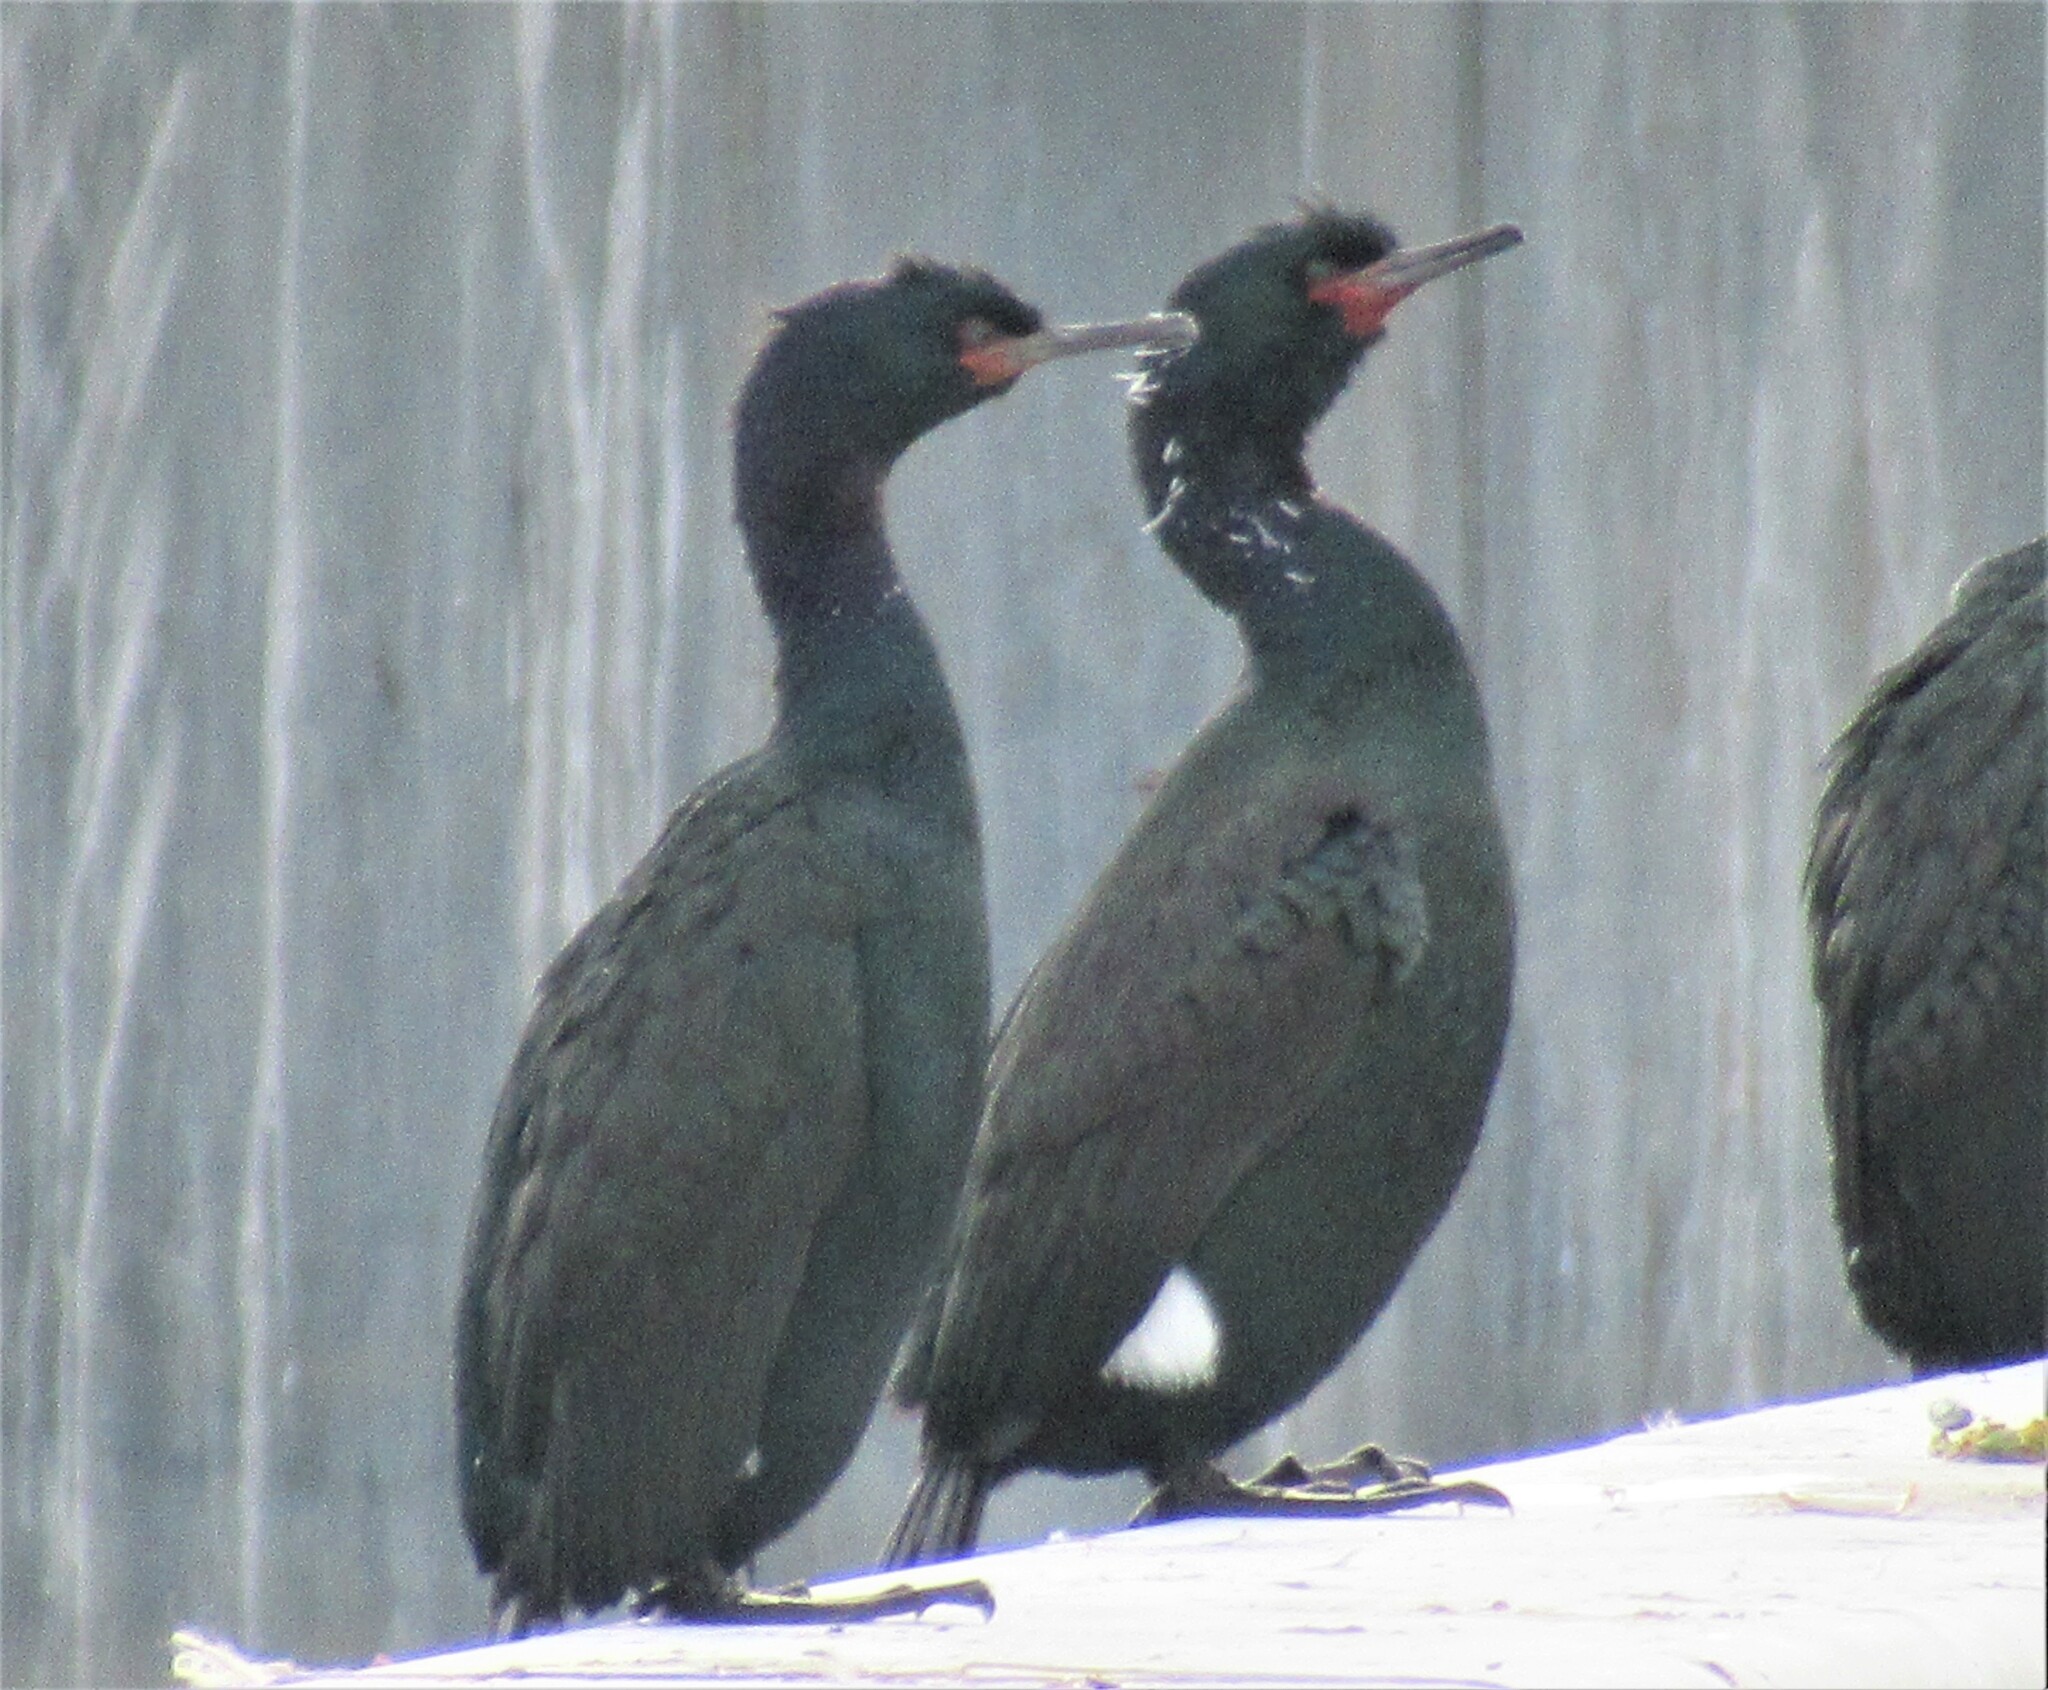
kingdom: Animalia
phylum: Chordata
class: Aves
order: Suliformes
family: Phalacrocoracidae
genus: Phalacrocorax
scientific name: Phalacrocorax pelagicus
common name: Pelagic cormorant
